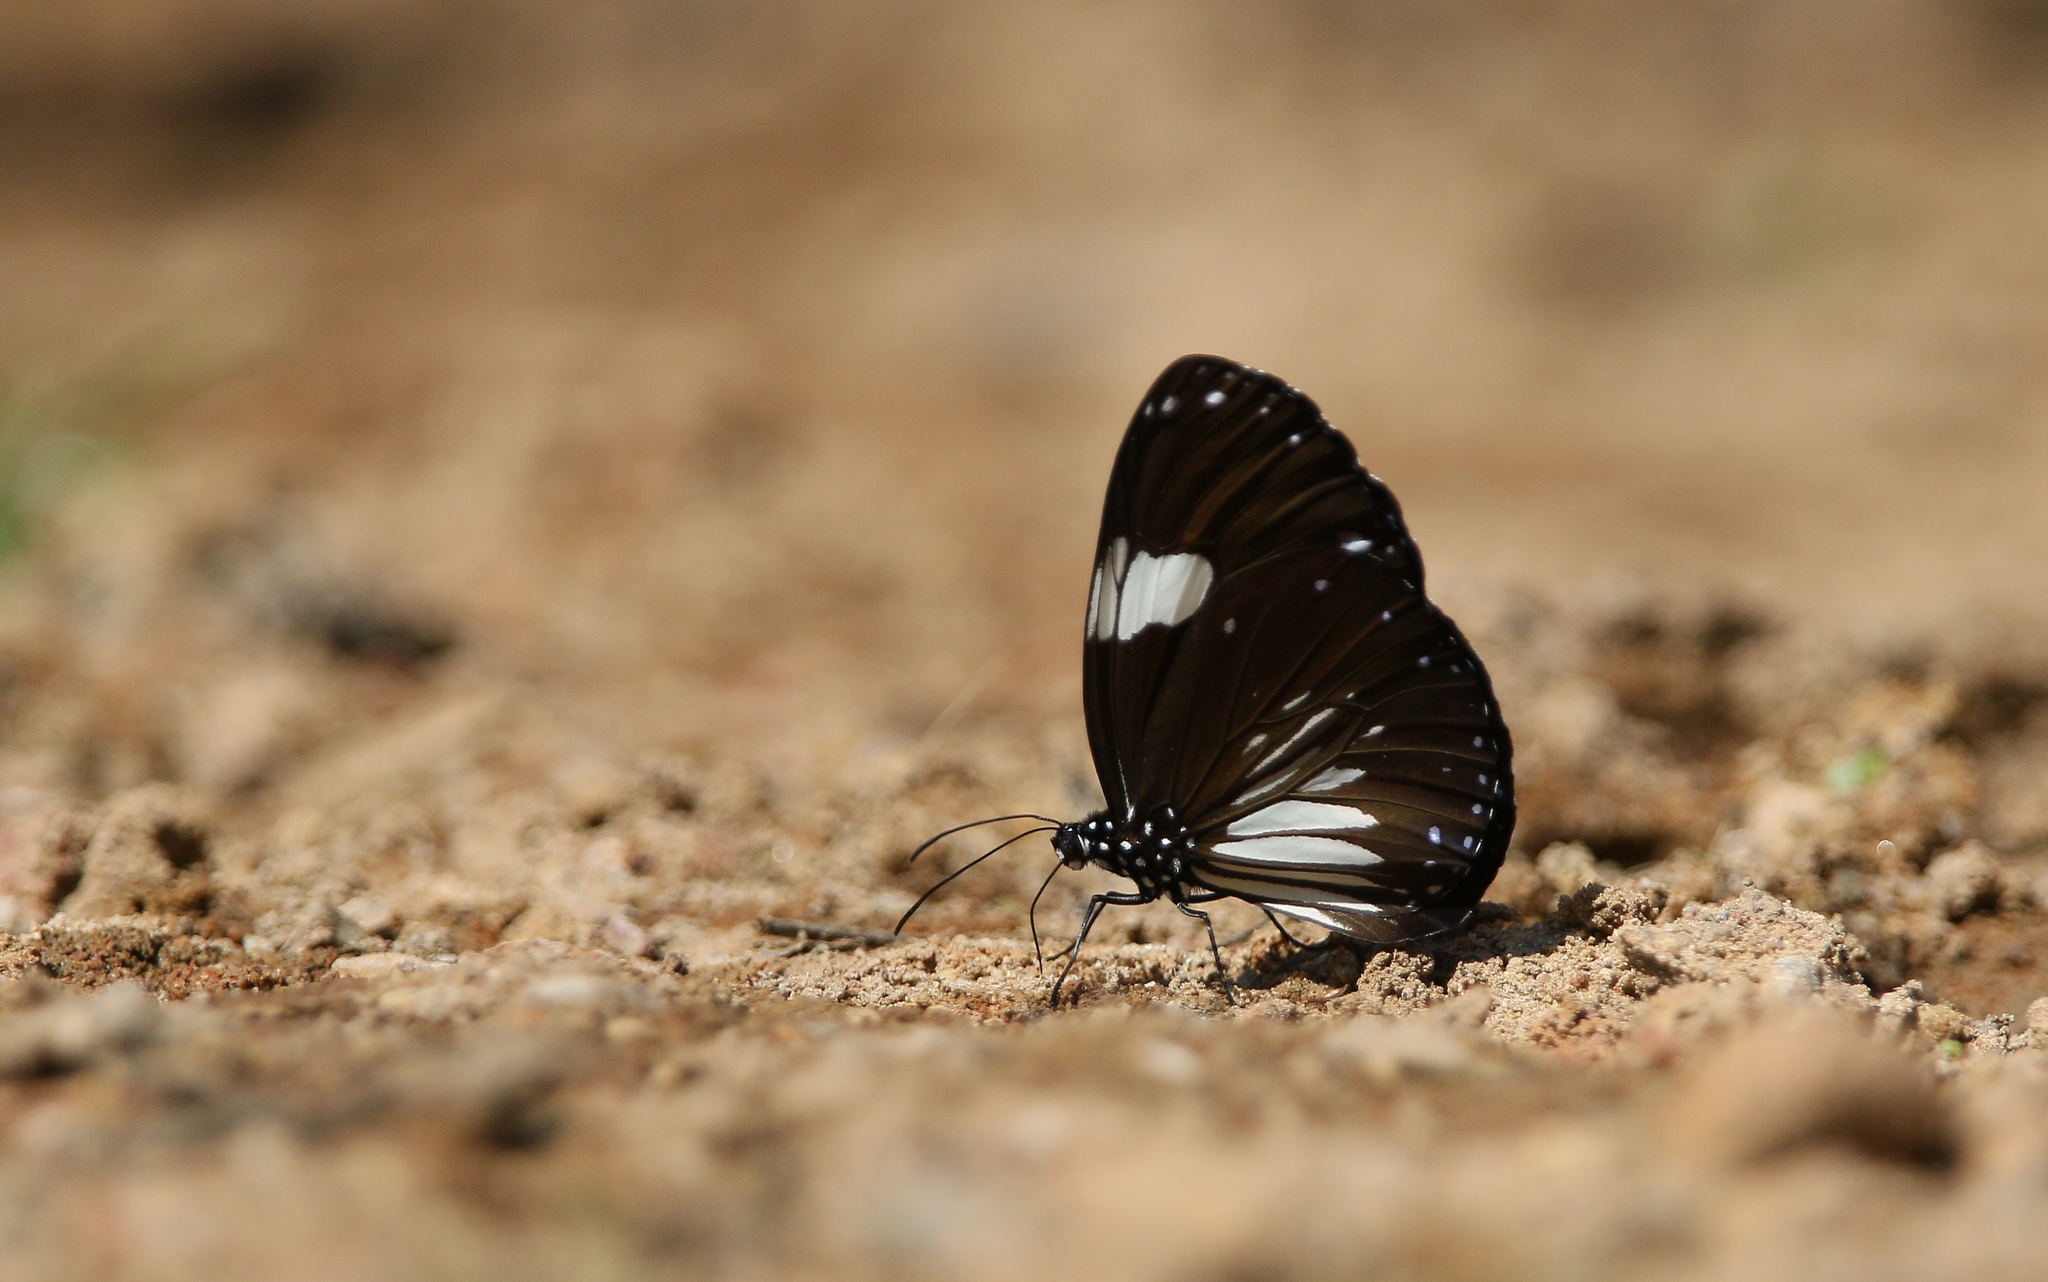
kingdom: Animalia
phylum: Arthropoda
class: Insecta
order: Lepidoptera
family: Nymphalidae
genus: Euploea
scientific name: Euploea radamanthus
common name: Magpie crow butterfly
